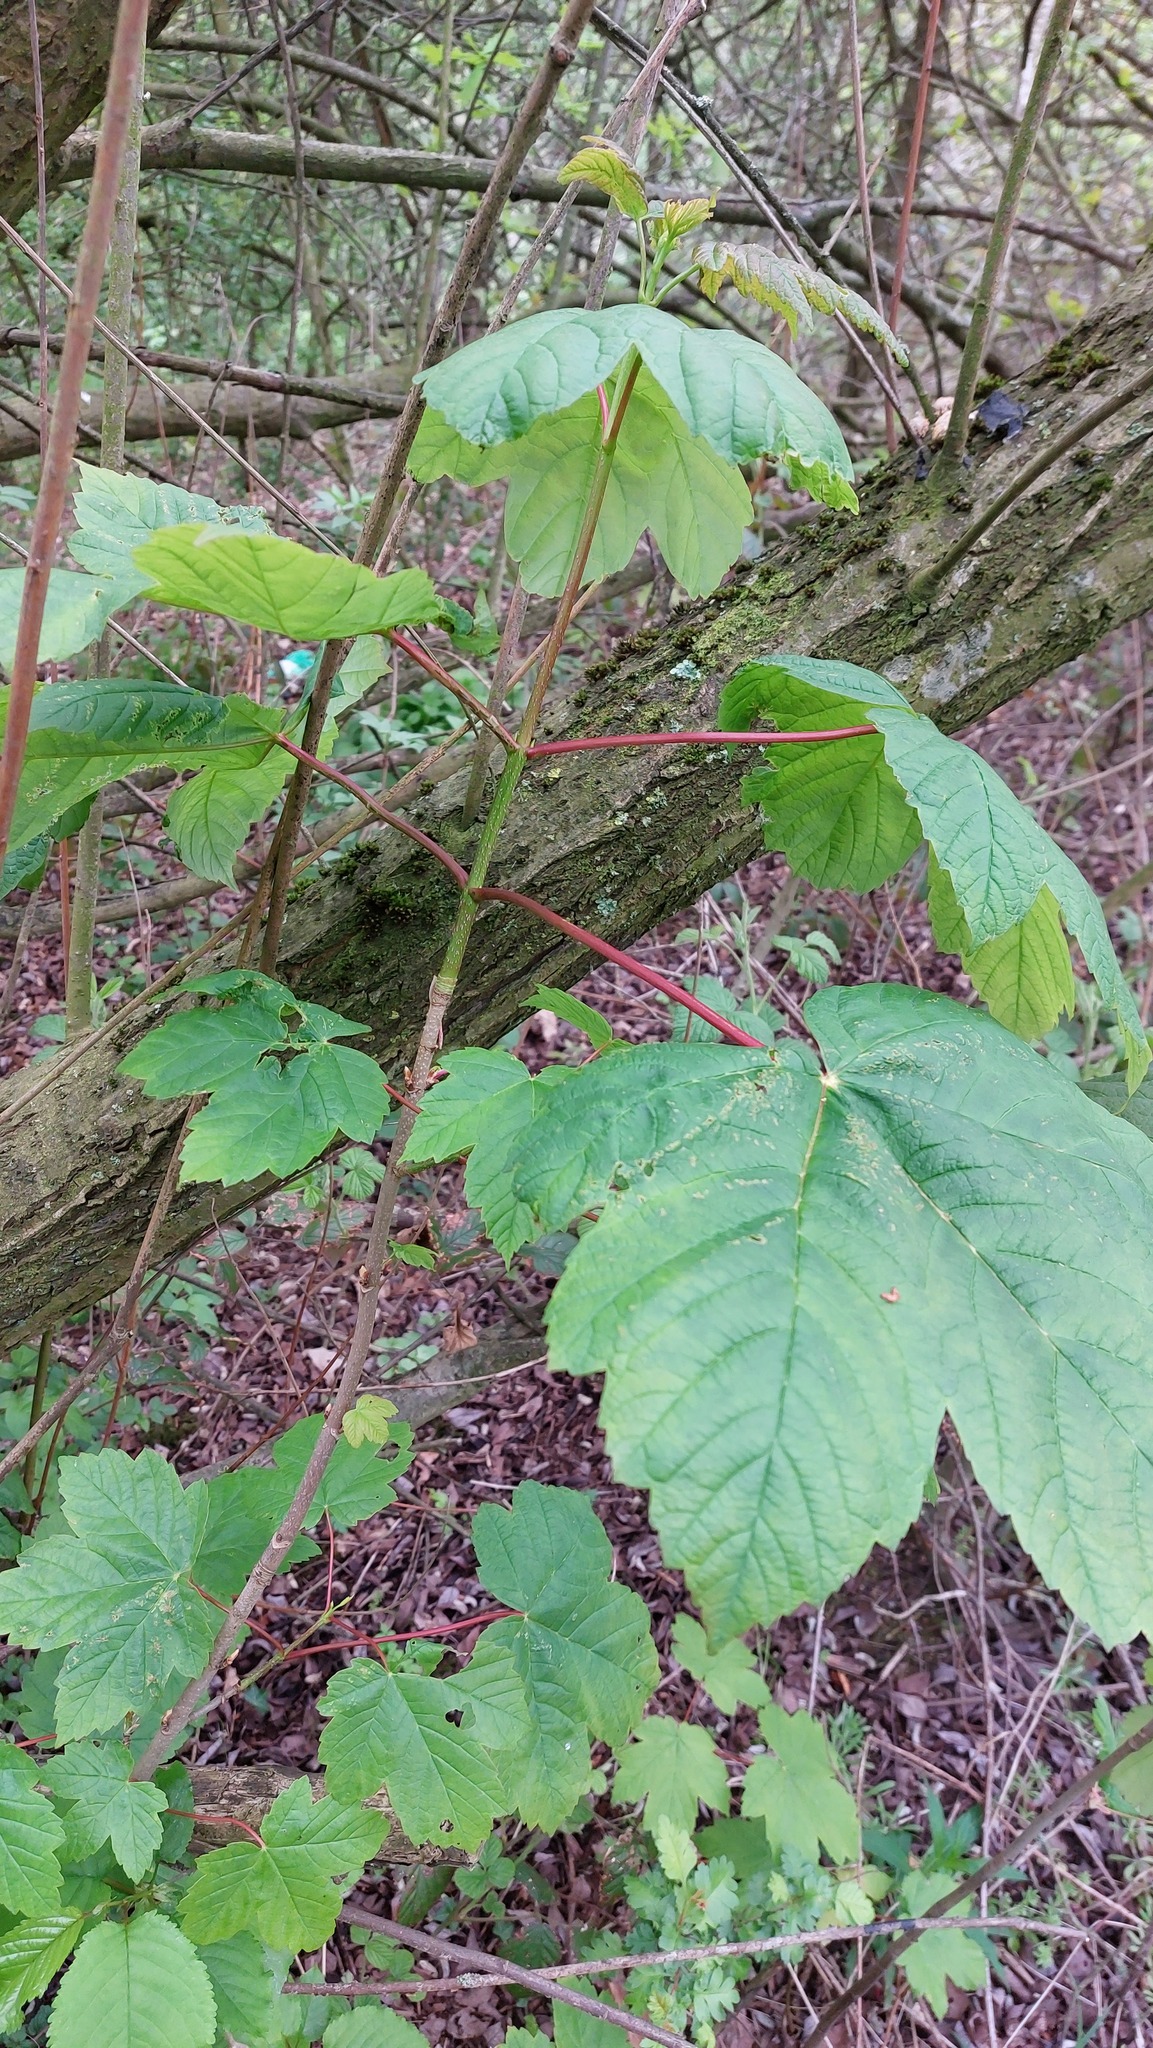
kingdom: Plantae
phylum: Tracheophyta
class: Magnoliopsida
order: Sapindales
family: Sapindaceae
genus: Acer
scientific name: Acer pseudoplatanus
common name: Sycamore
